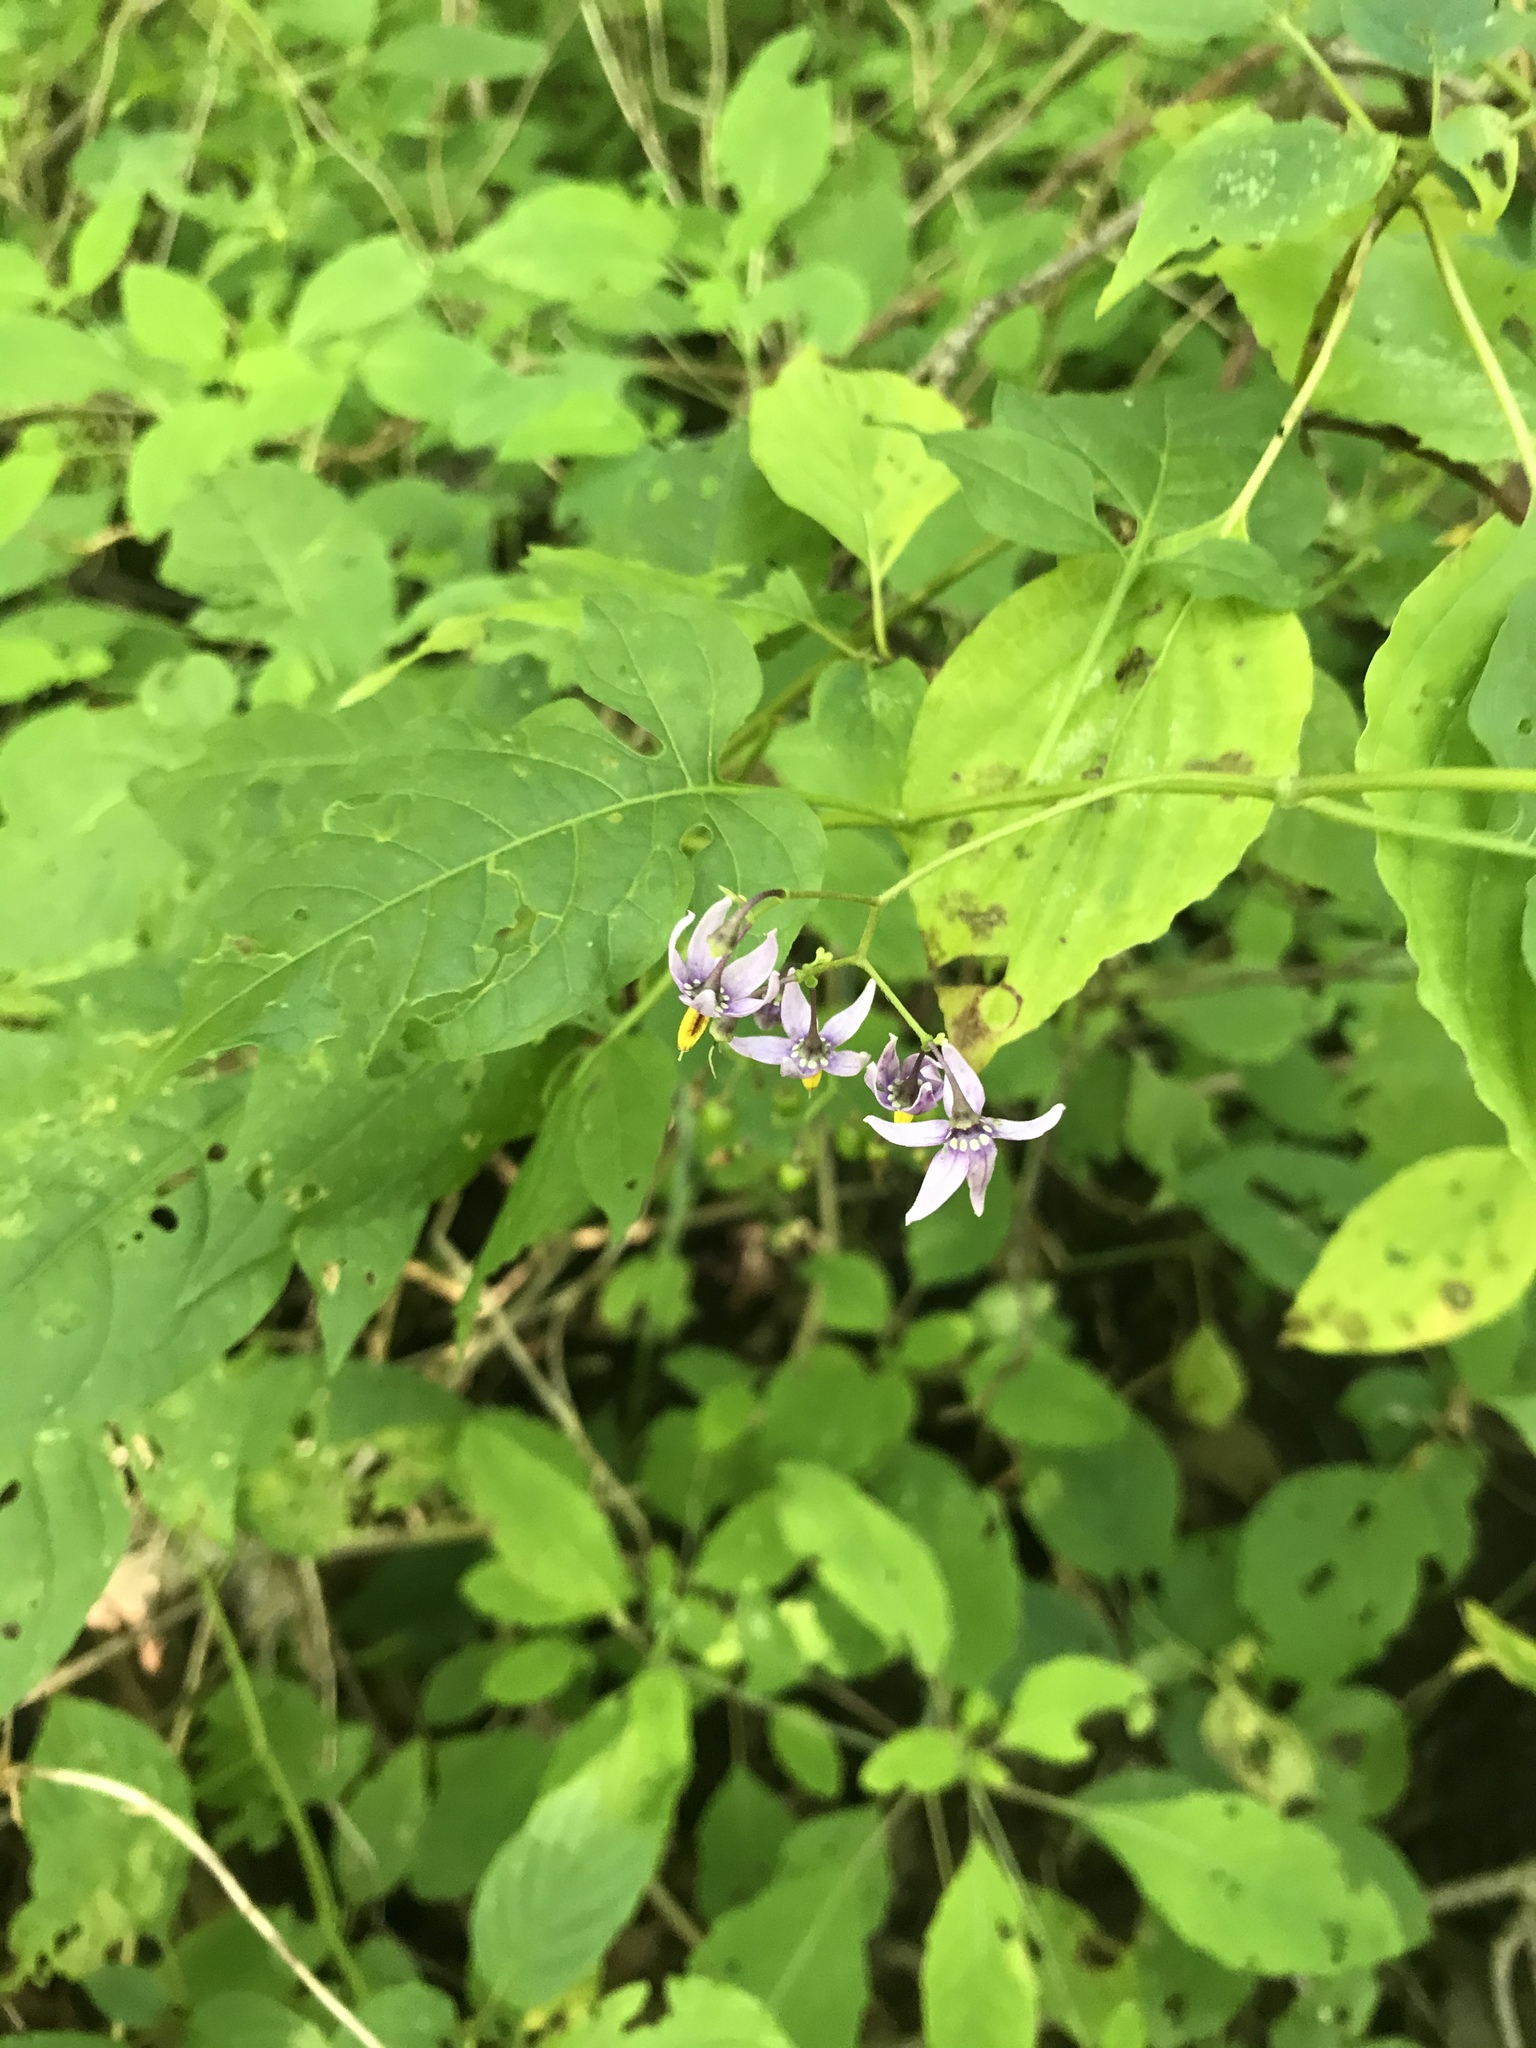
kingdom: Plantae
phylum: Tracheophyta
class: Magnoliopsida
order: Solanales
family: Solanaceae
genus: Solanum
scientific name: Solanum dulcamara
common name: Climbing nightshade
